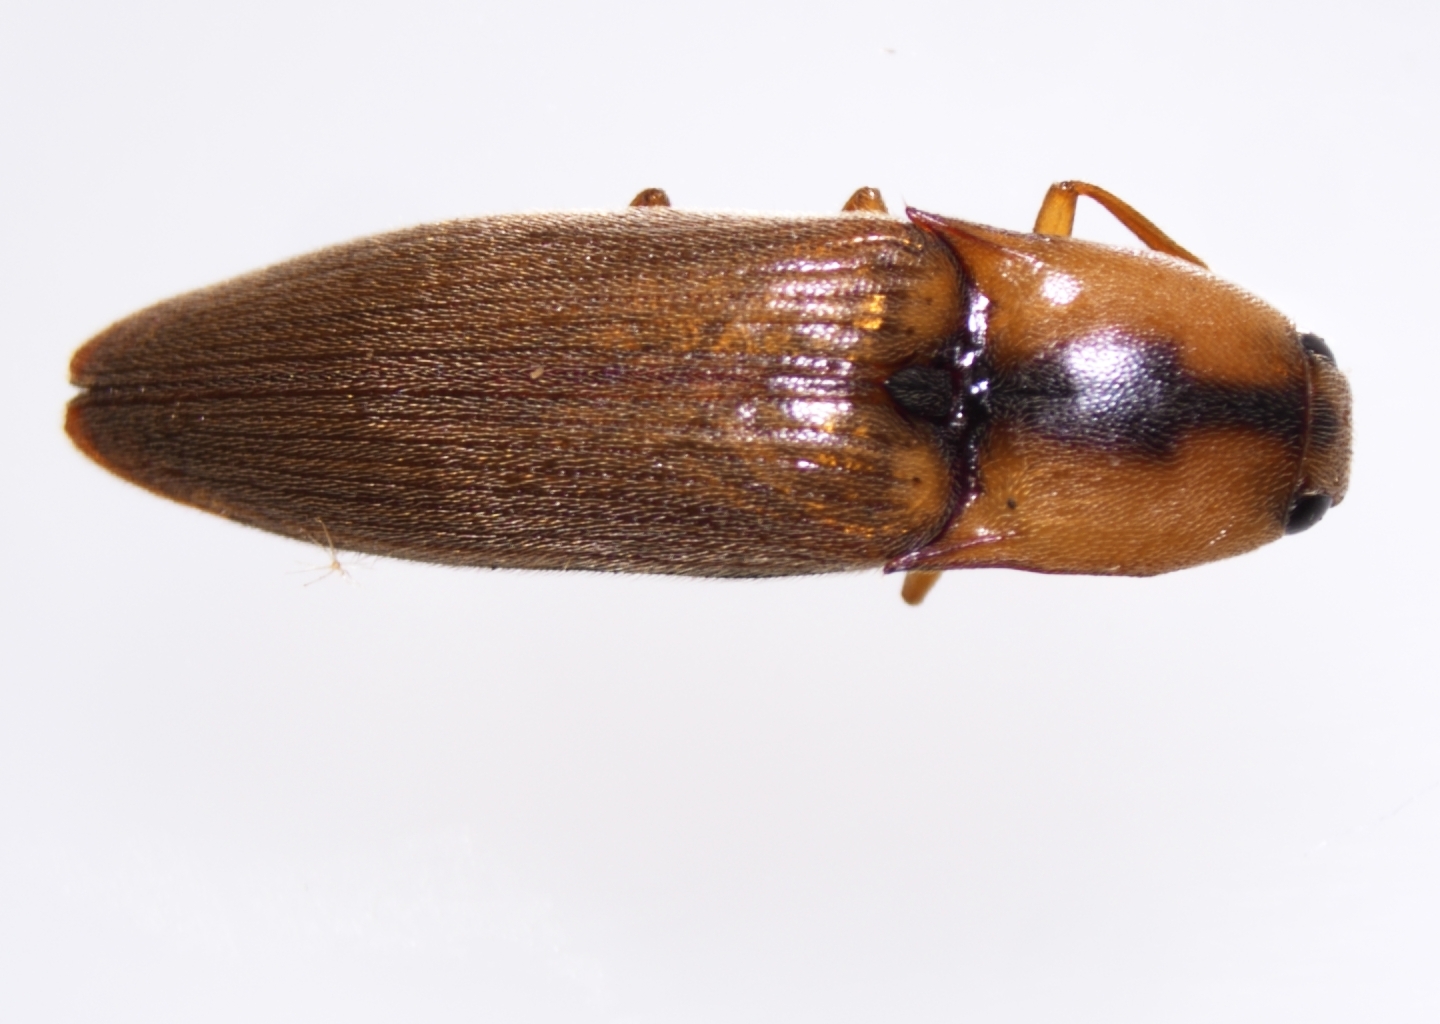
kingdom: Animalia
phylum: Arthropoda
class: Insecta
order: Coleoptera
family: Elateridae
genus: Simodactylus
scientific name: Simodactylus cinnamomeus
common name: Click beetle
